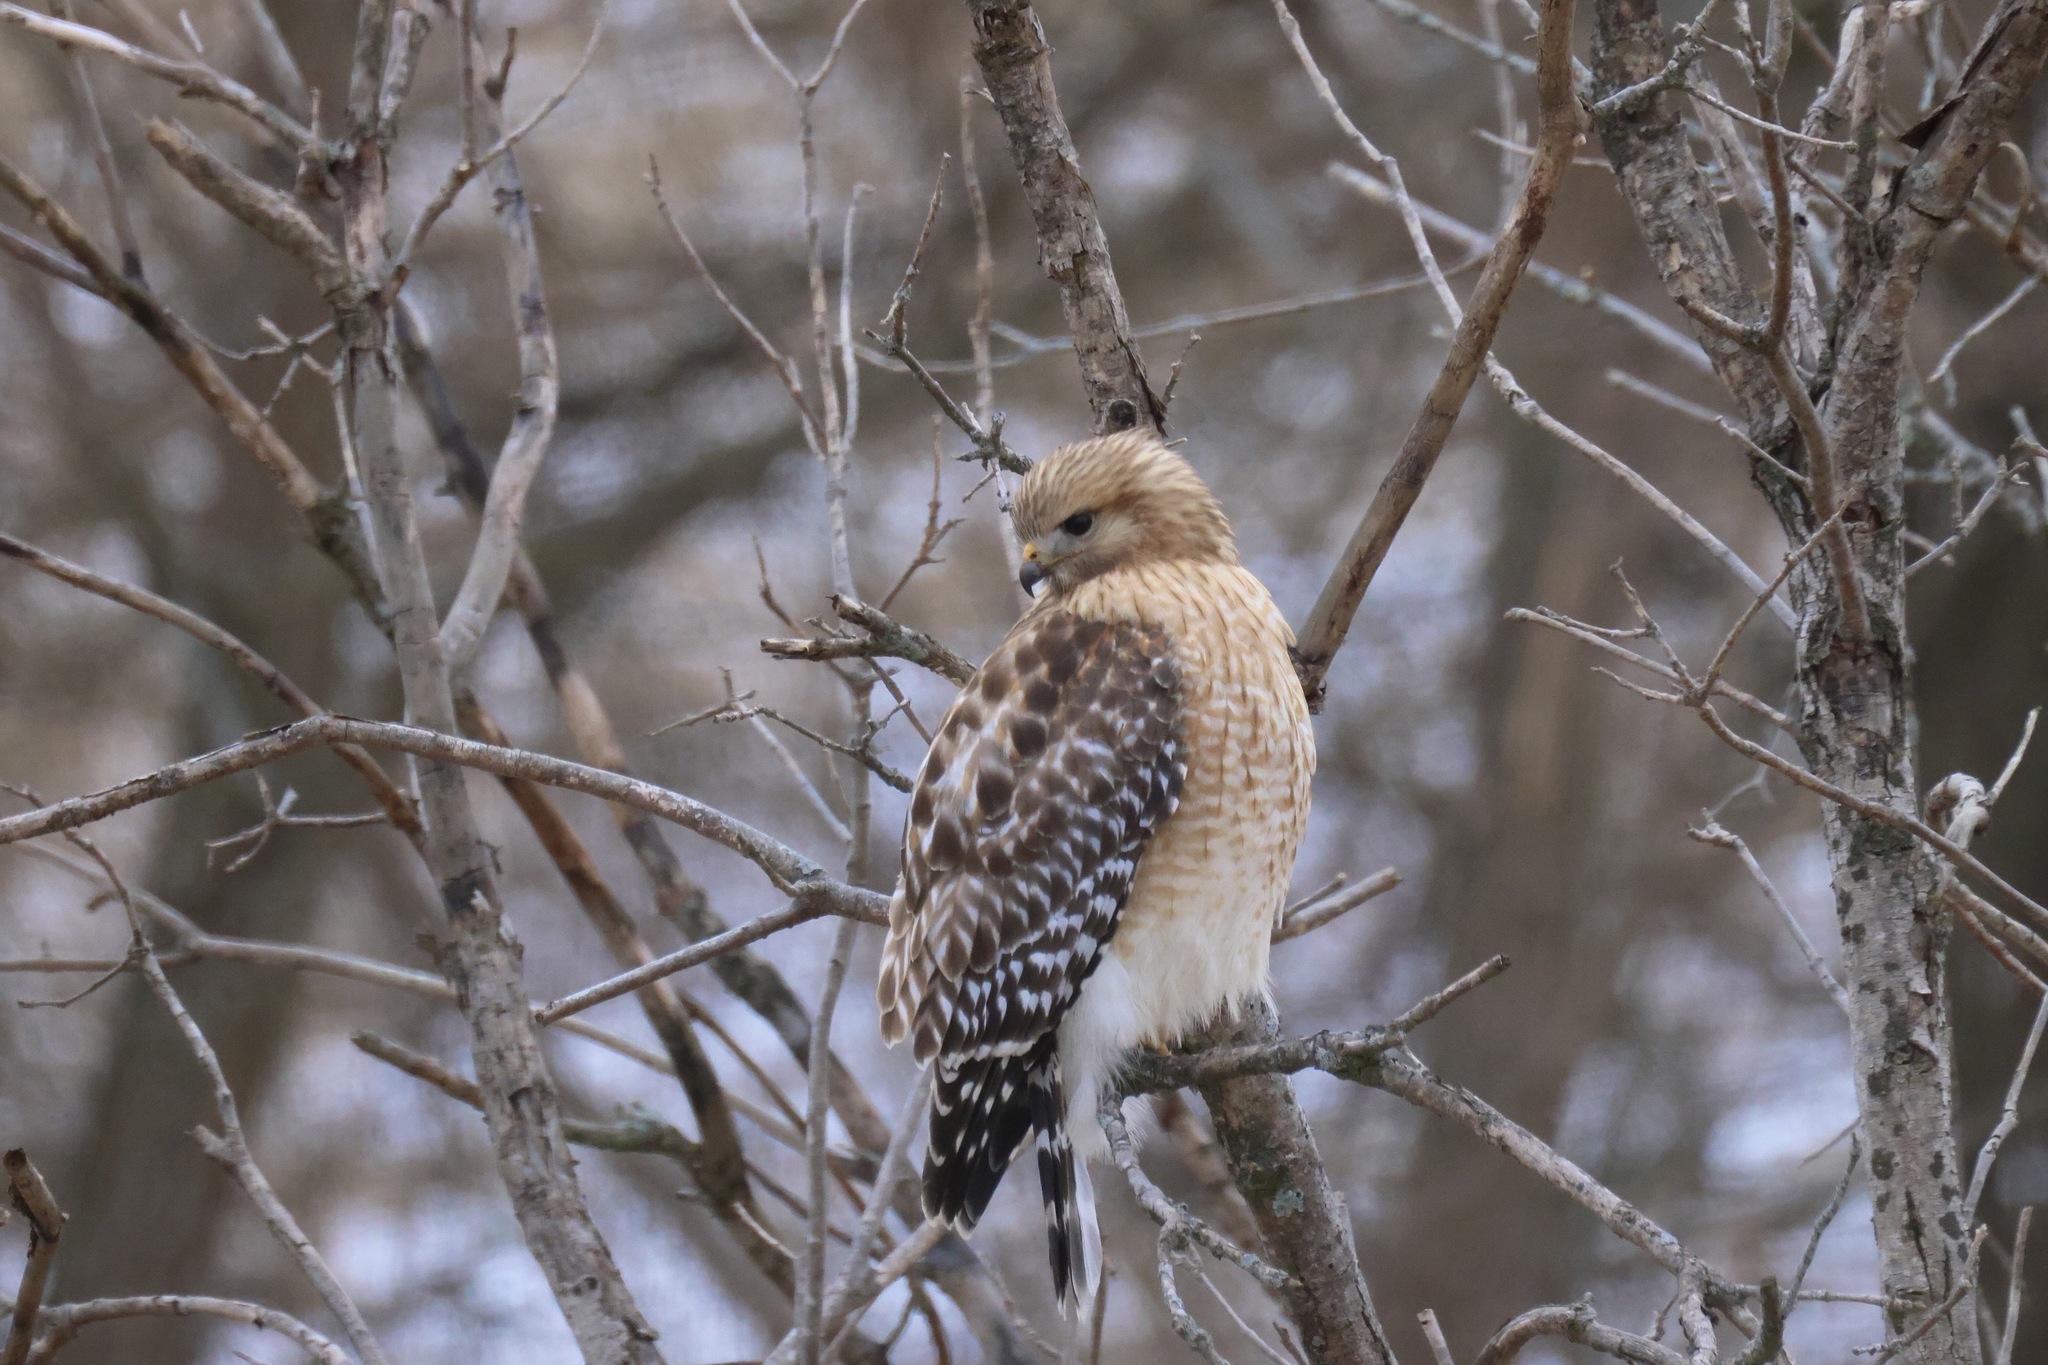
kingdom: Animalia
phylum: Chordata
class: Aves
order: Accipitriformes
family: Accipitridae
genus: Buteo
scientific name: Buteo lineatus
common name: Red-shouldered hawk
